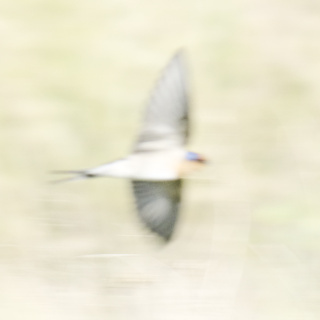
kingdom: Animalia
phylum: Chordata
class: Aves
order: Passeriformes
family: Hirundinidae
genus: Hirundo
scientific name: Hirundo neoxena
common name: Welcome swallow
